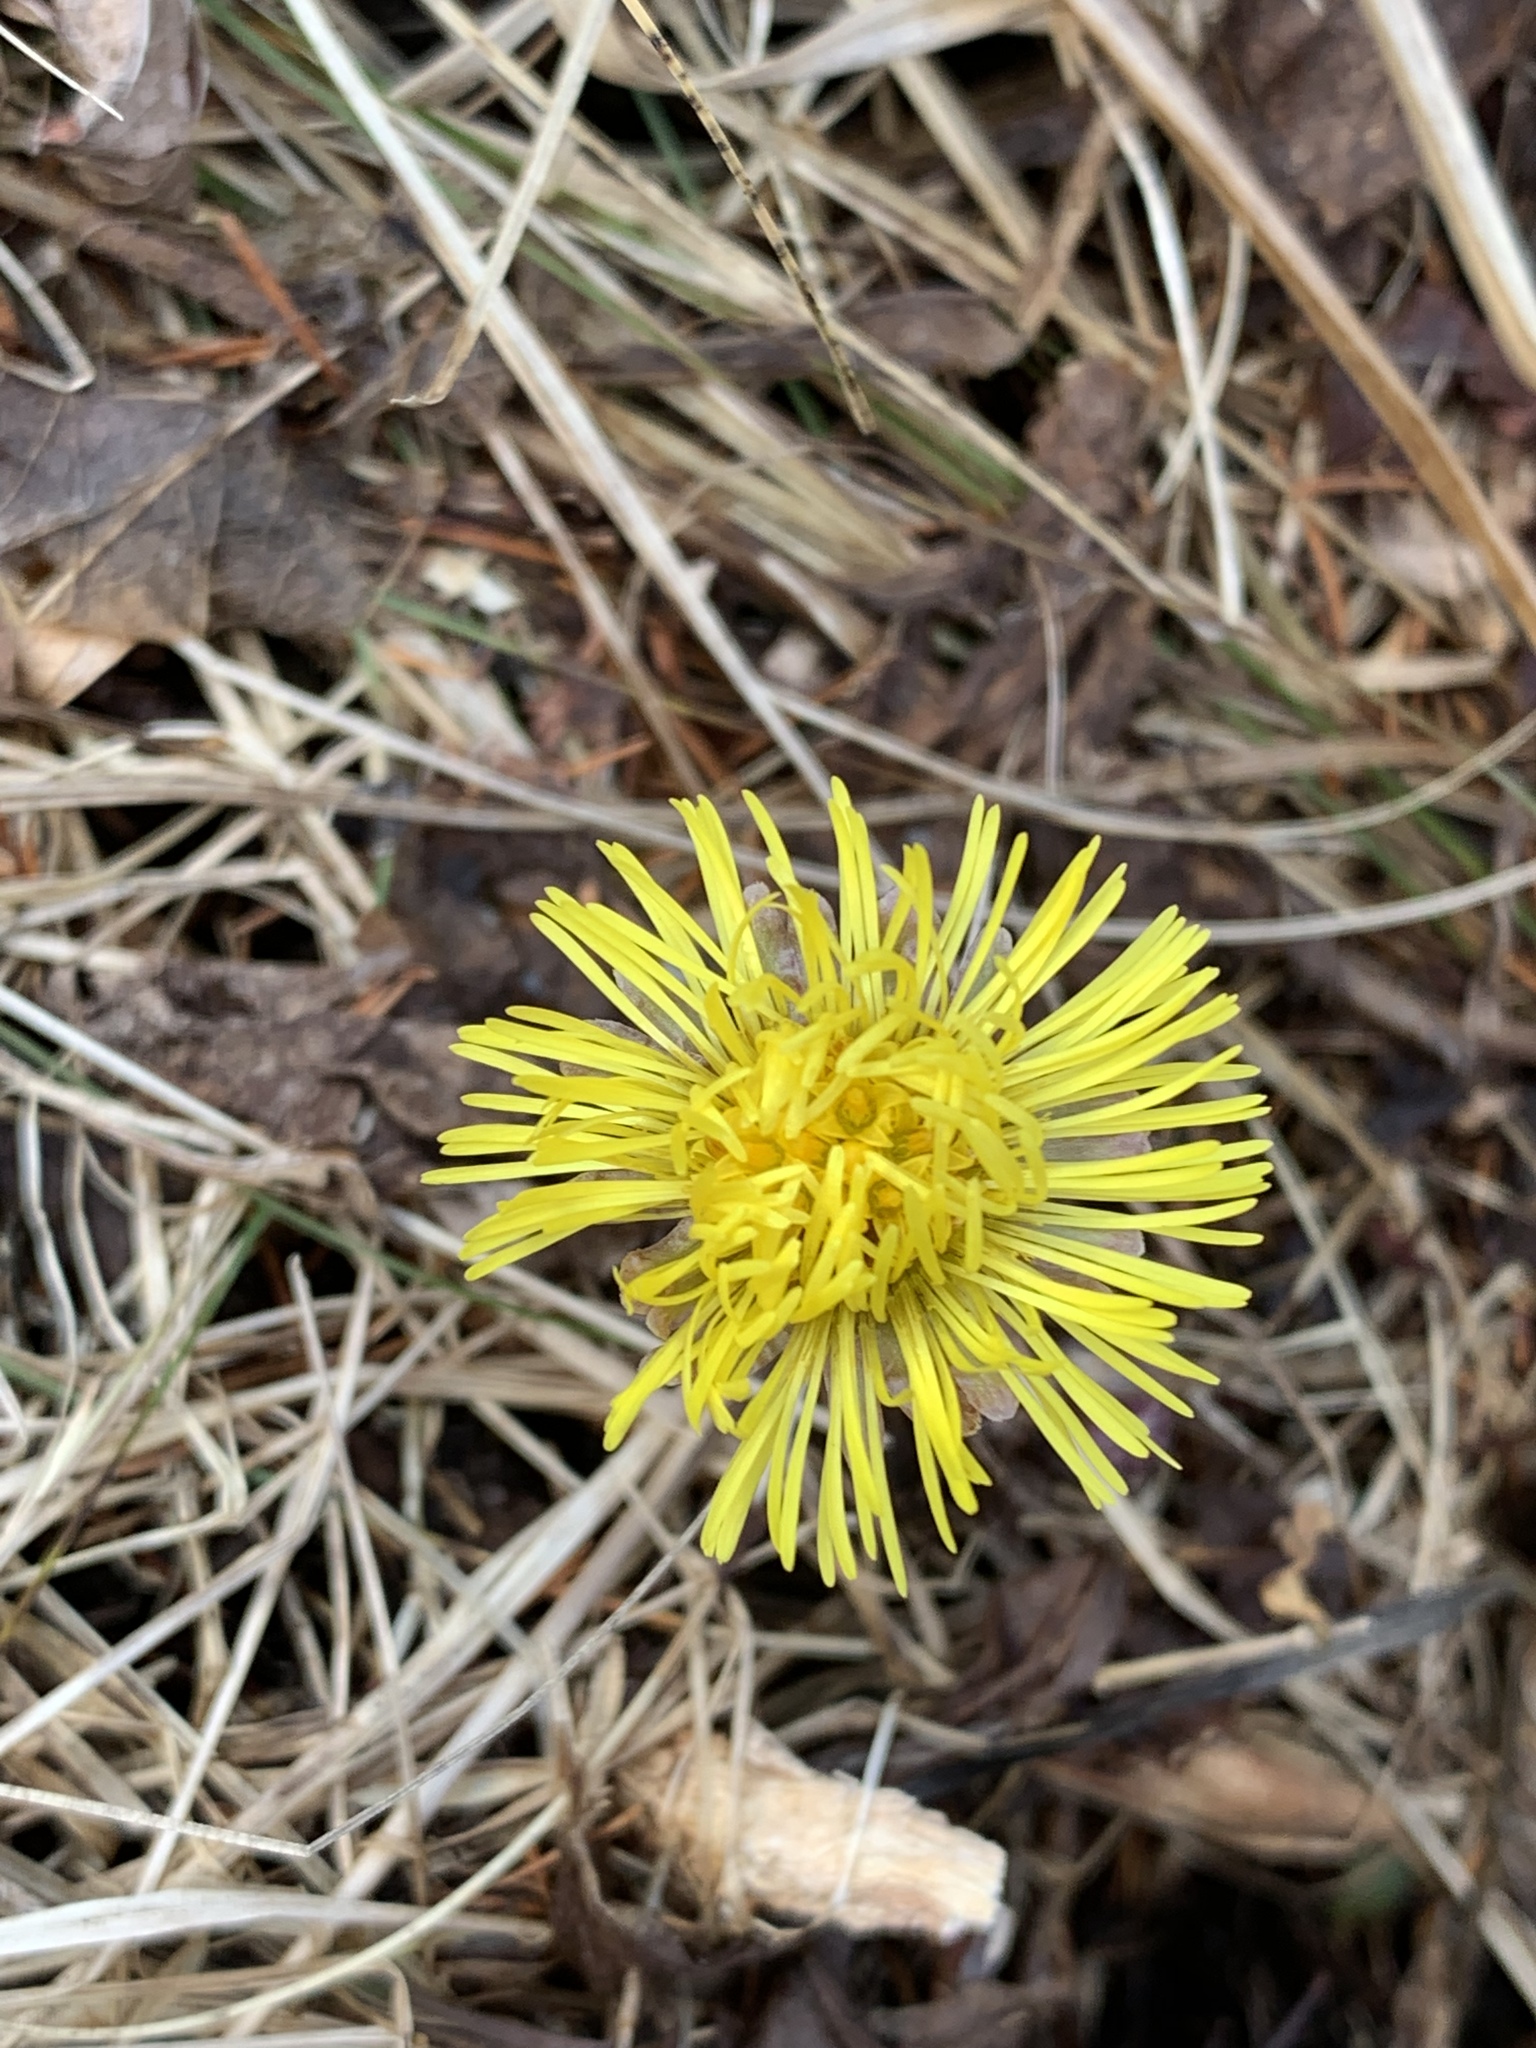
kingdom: Plantae
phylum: Tracheophyta
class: Magnoliopsida
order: Asterales
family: Asteraceae
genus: Tussilago
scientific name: Tussilago farfara
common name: Coltsfoot
